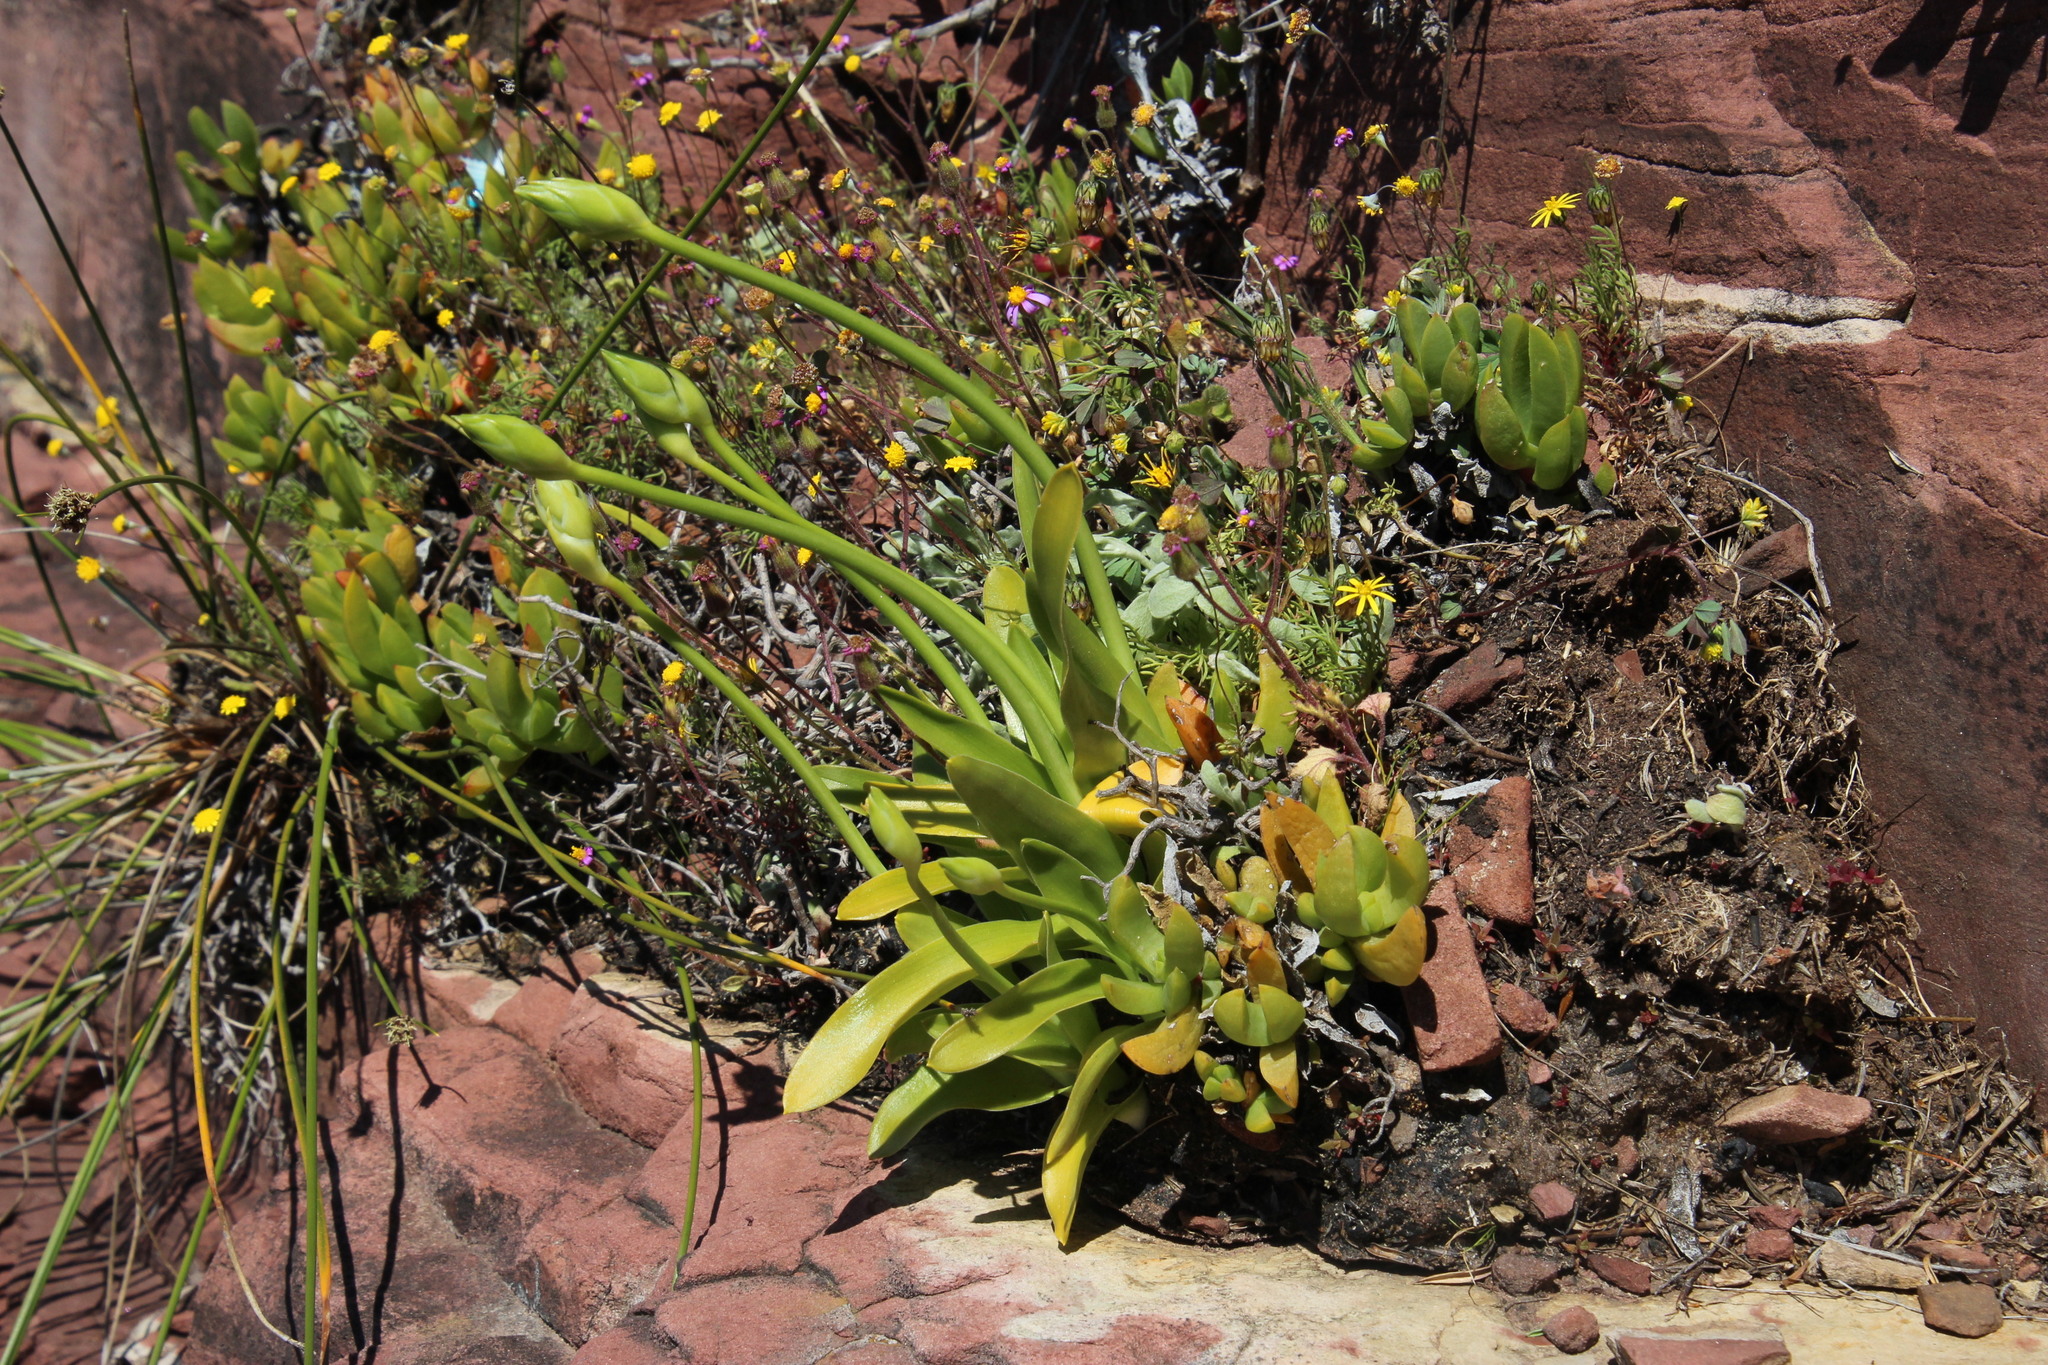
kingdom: Plantae
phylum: Tracheophyta
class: Liliopsida
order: Asparagales
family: Asparagaceae
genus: Ornithogalum
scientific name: Ornithogalum thyrsoides
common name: Chincherinchee
